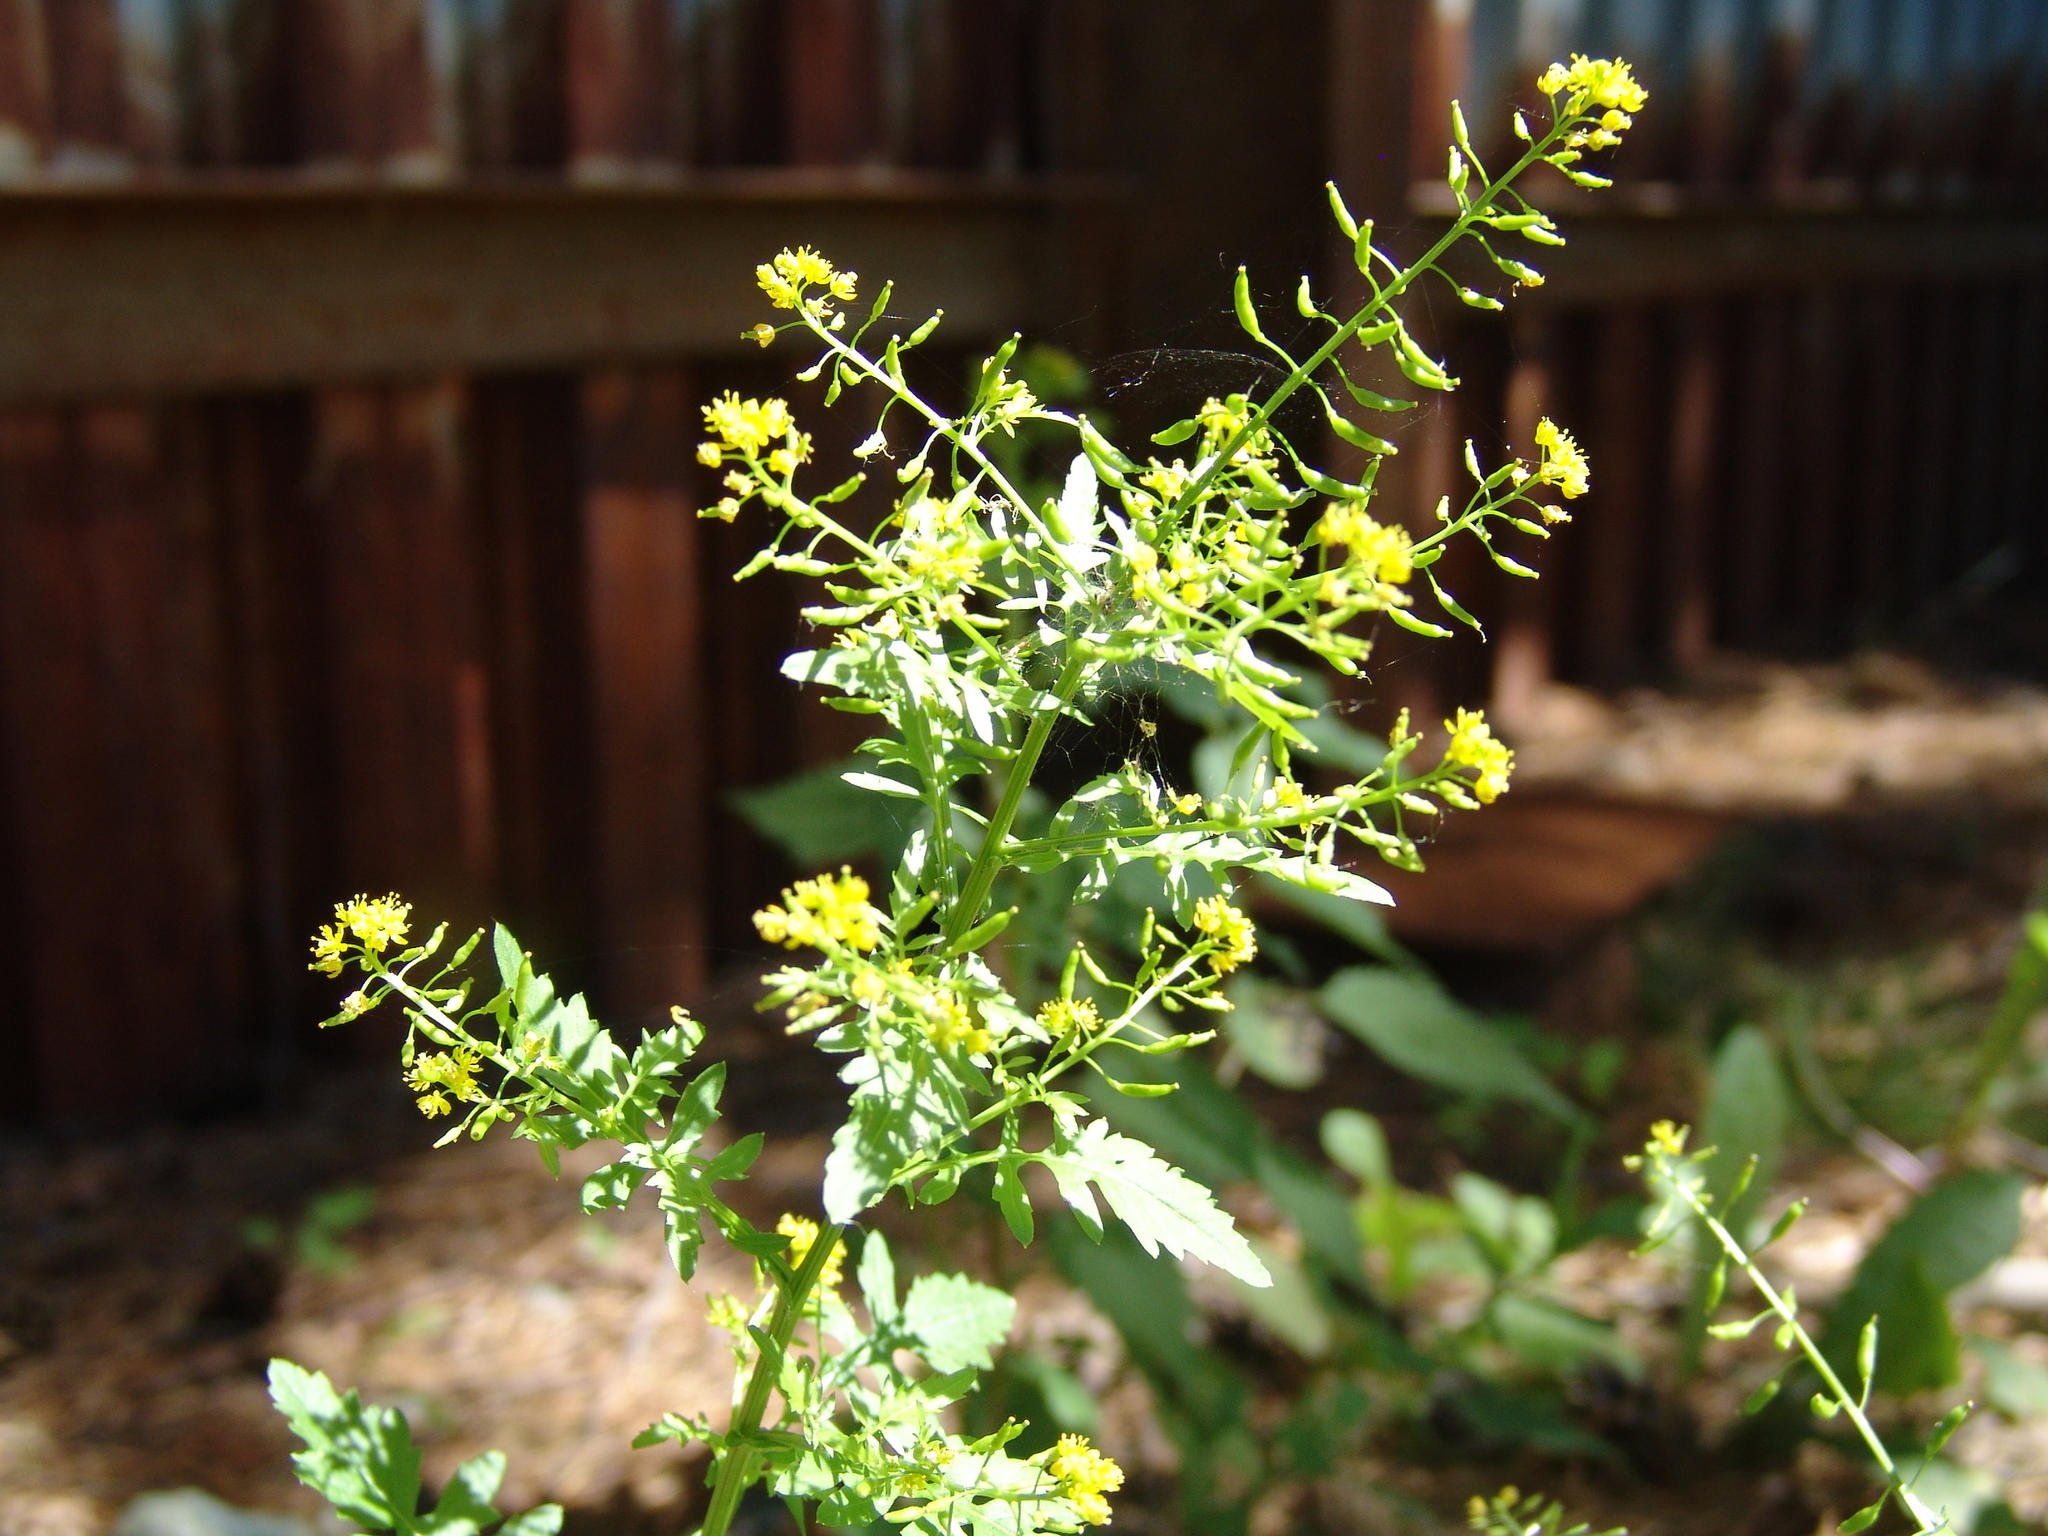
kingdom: Plantae
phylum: Tracheophyta
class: Magnoliopsida
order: Brassicales
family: Brassicaceae
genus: Rorippa
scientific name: Rorippa palustris
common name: Marsh yellow-cress
